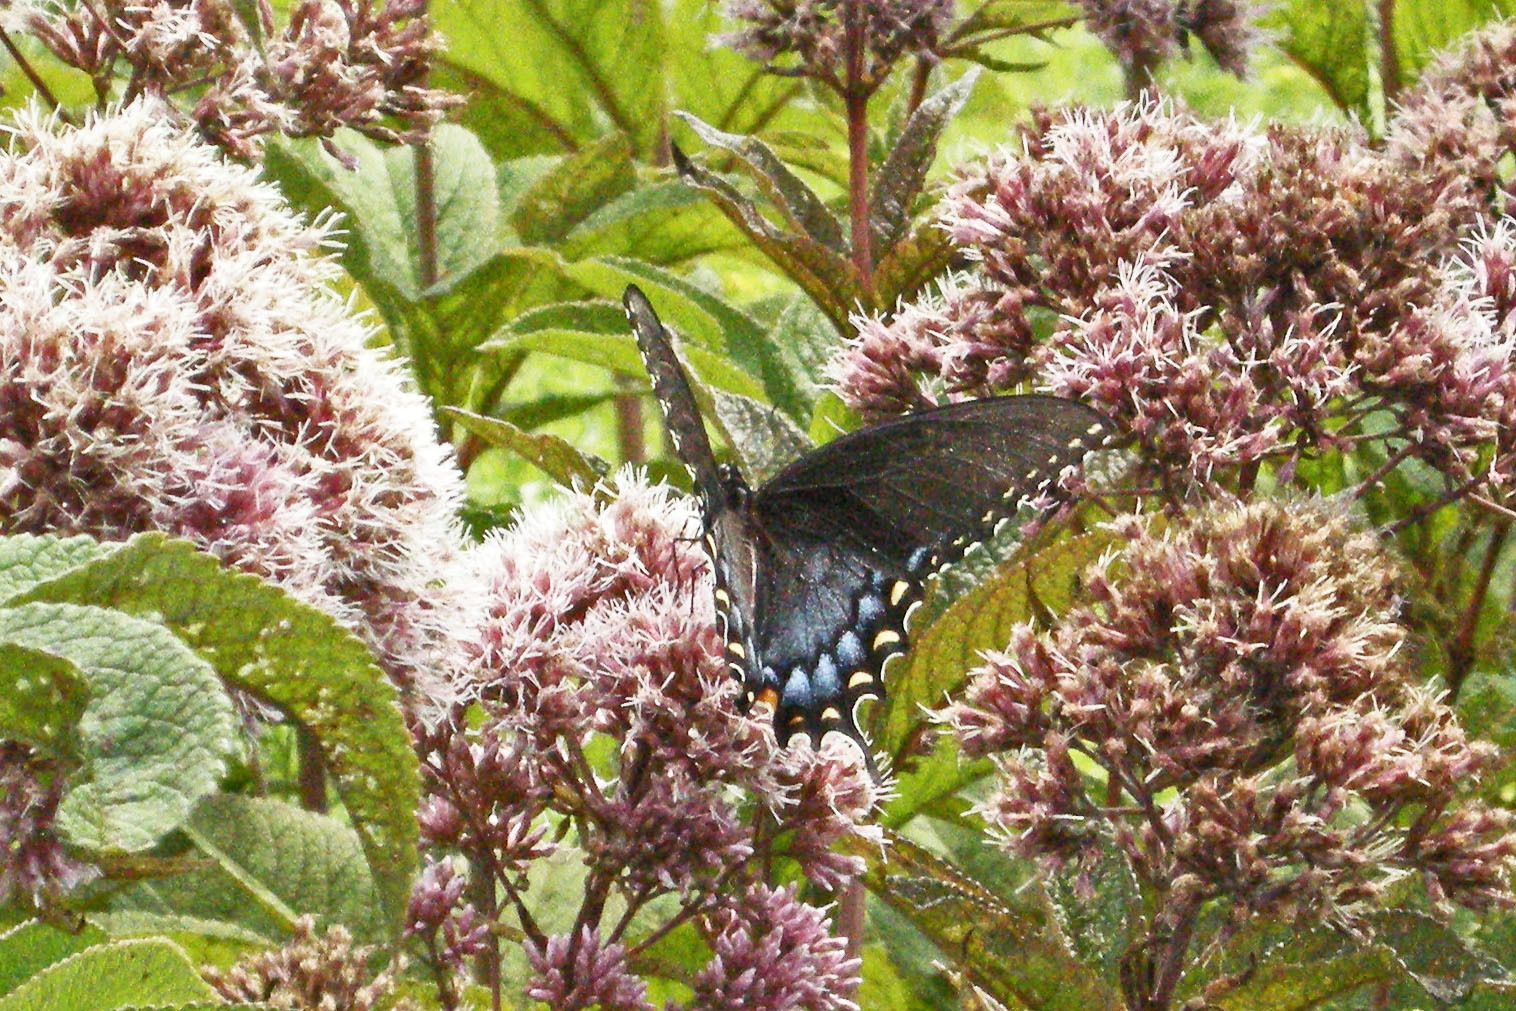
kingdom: Animalia
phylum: Arthropoda
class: Insecta
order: Lepidoptera
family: Papilionidae
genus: Papilio
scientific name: Papilio glaucus
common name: Tiger swallowtail
